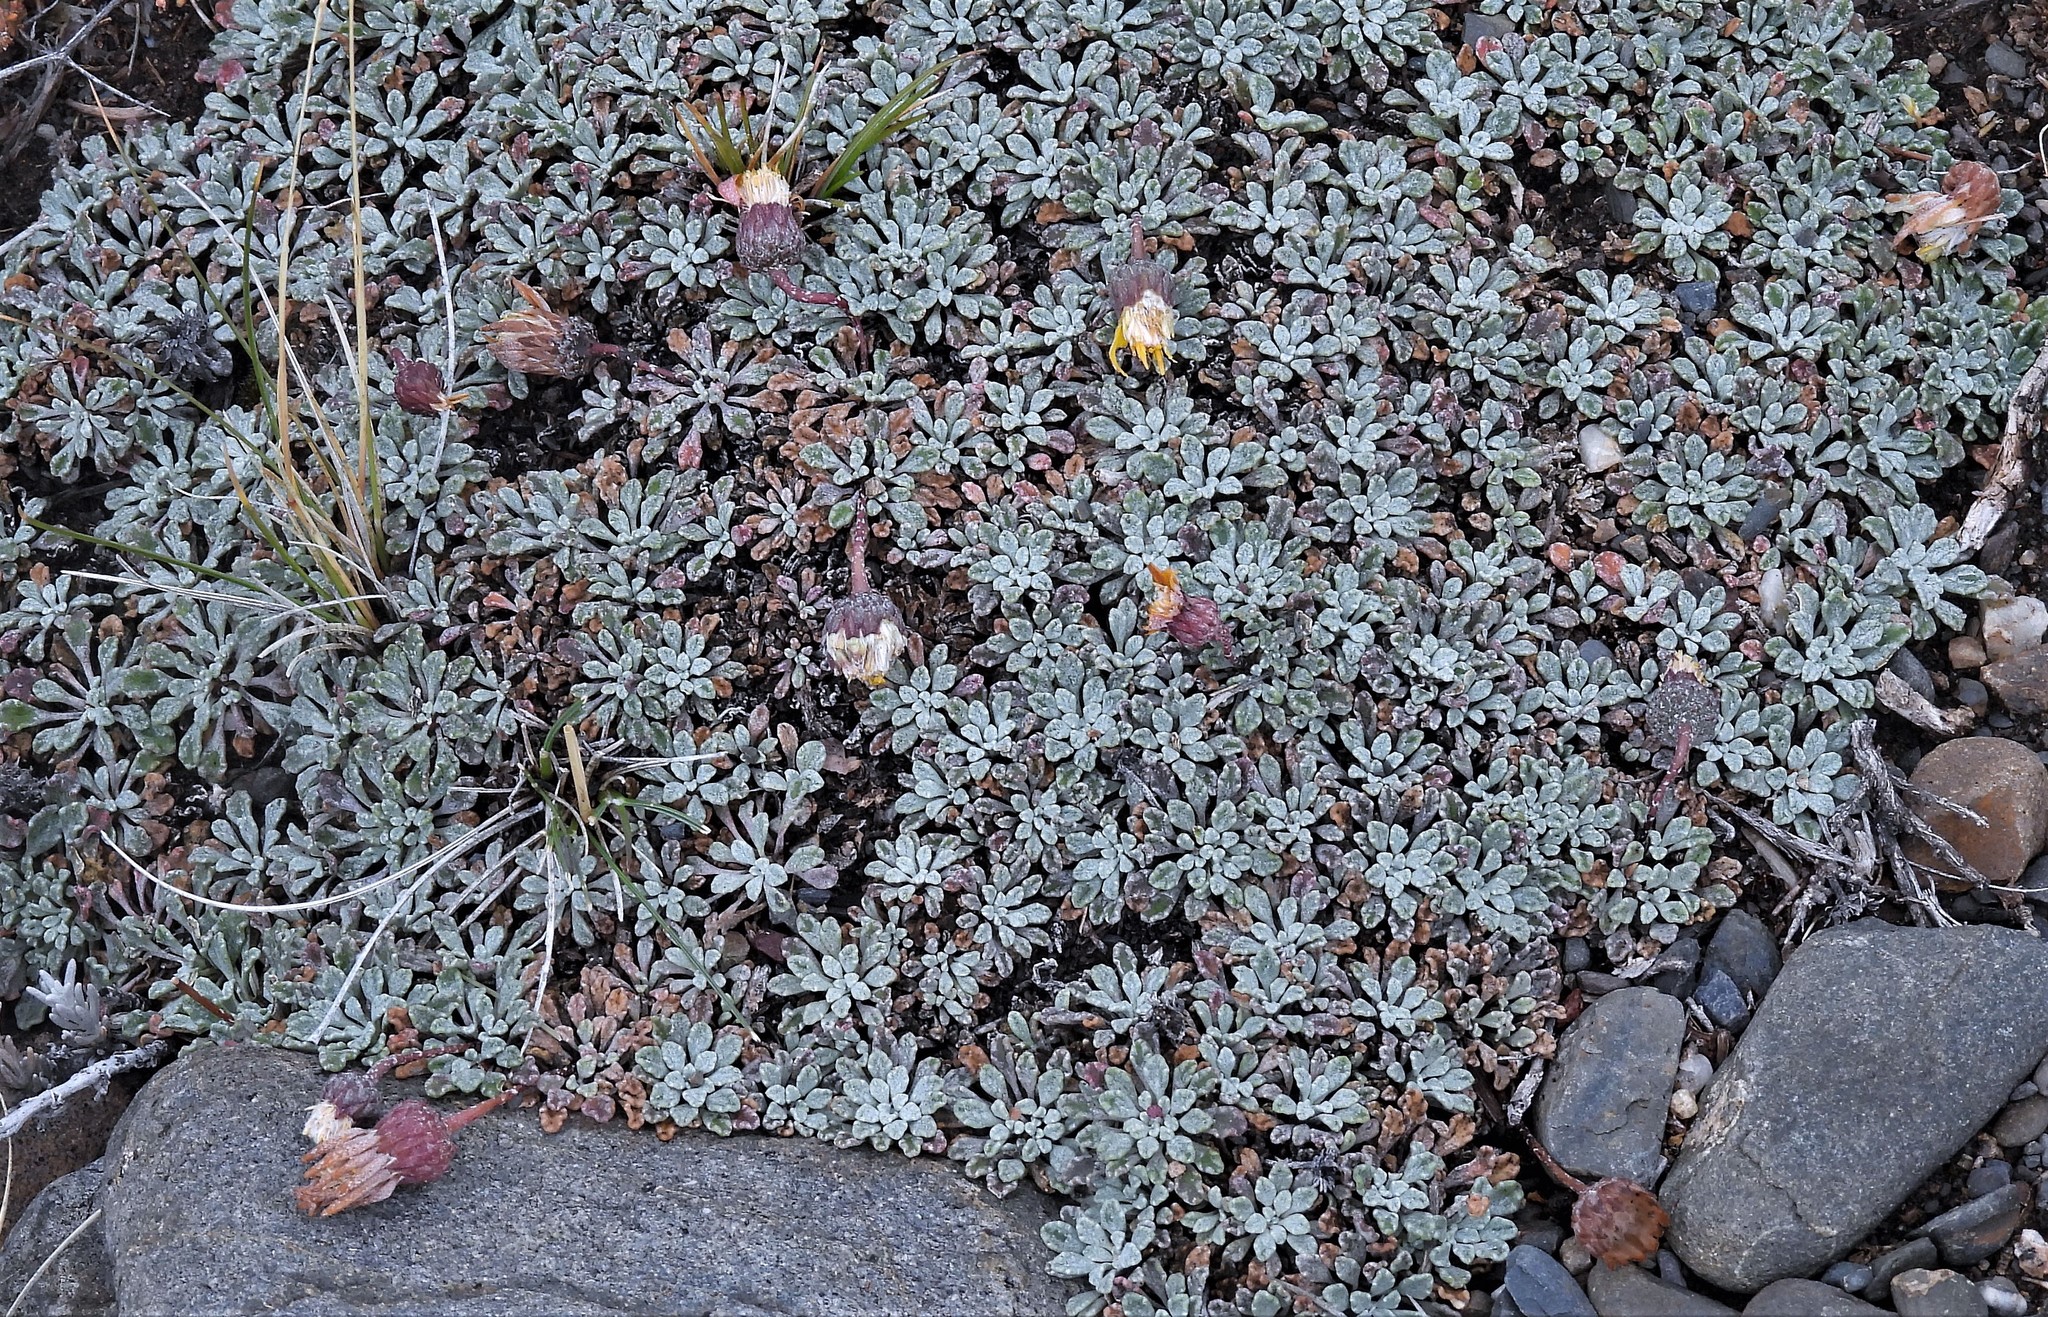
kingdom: Plantae
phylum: Tracheophyta
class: Magnoliopsida
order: Asterales
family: Asteraceae
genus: Trichocline
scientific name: Trichocline dealbata
